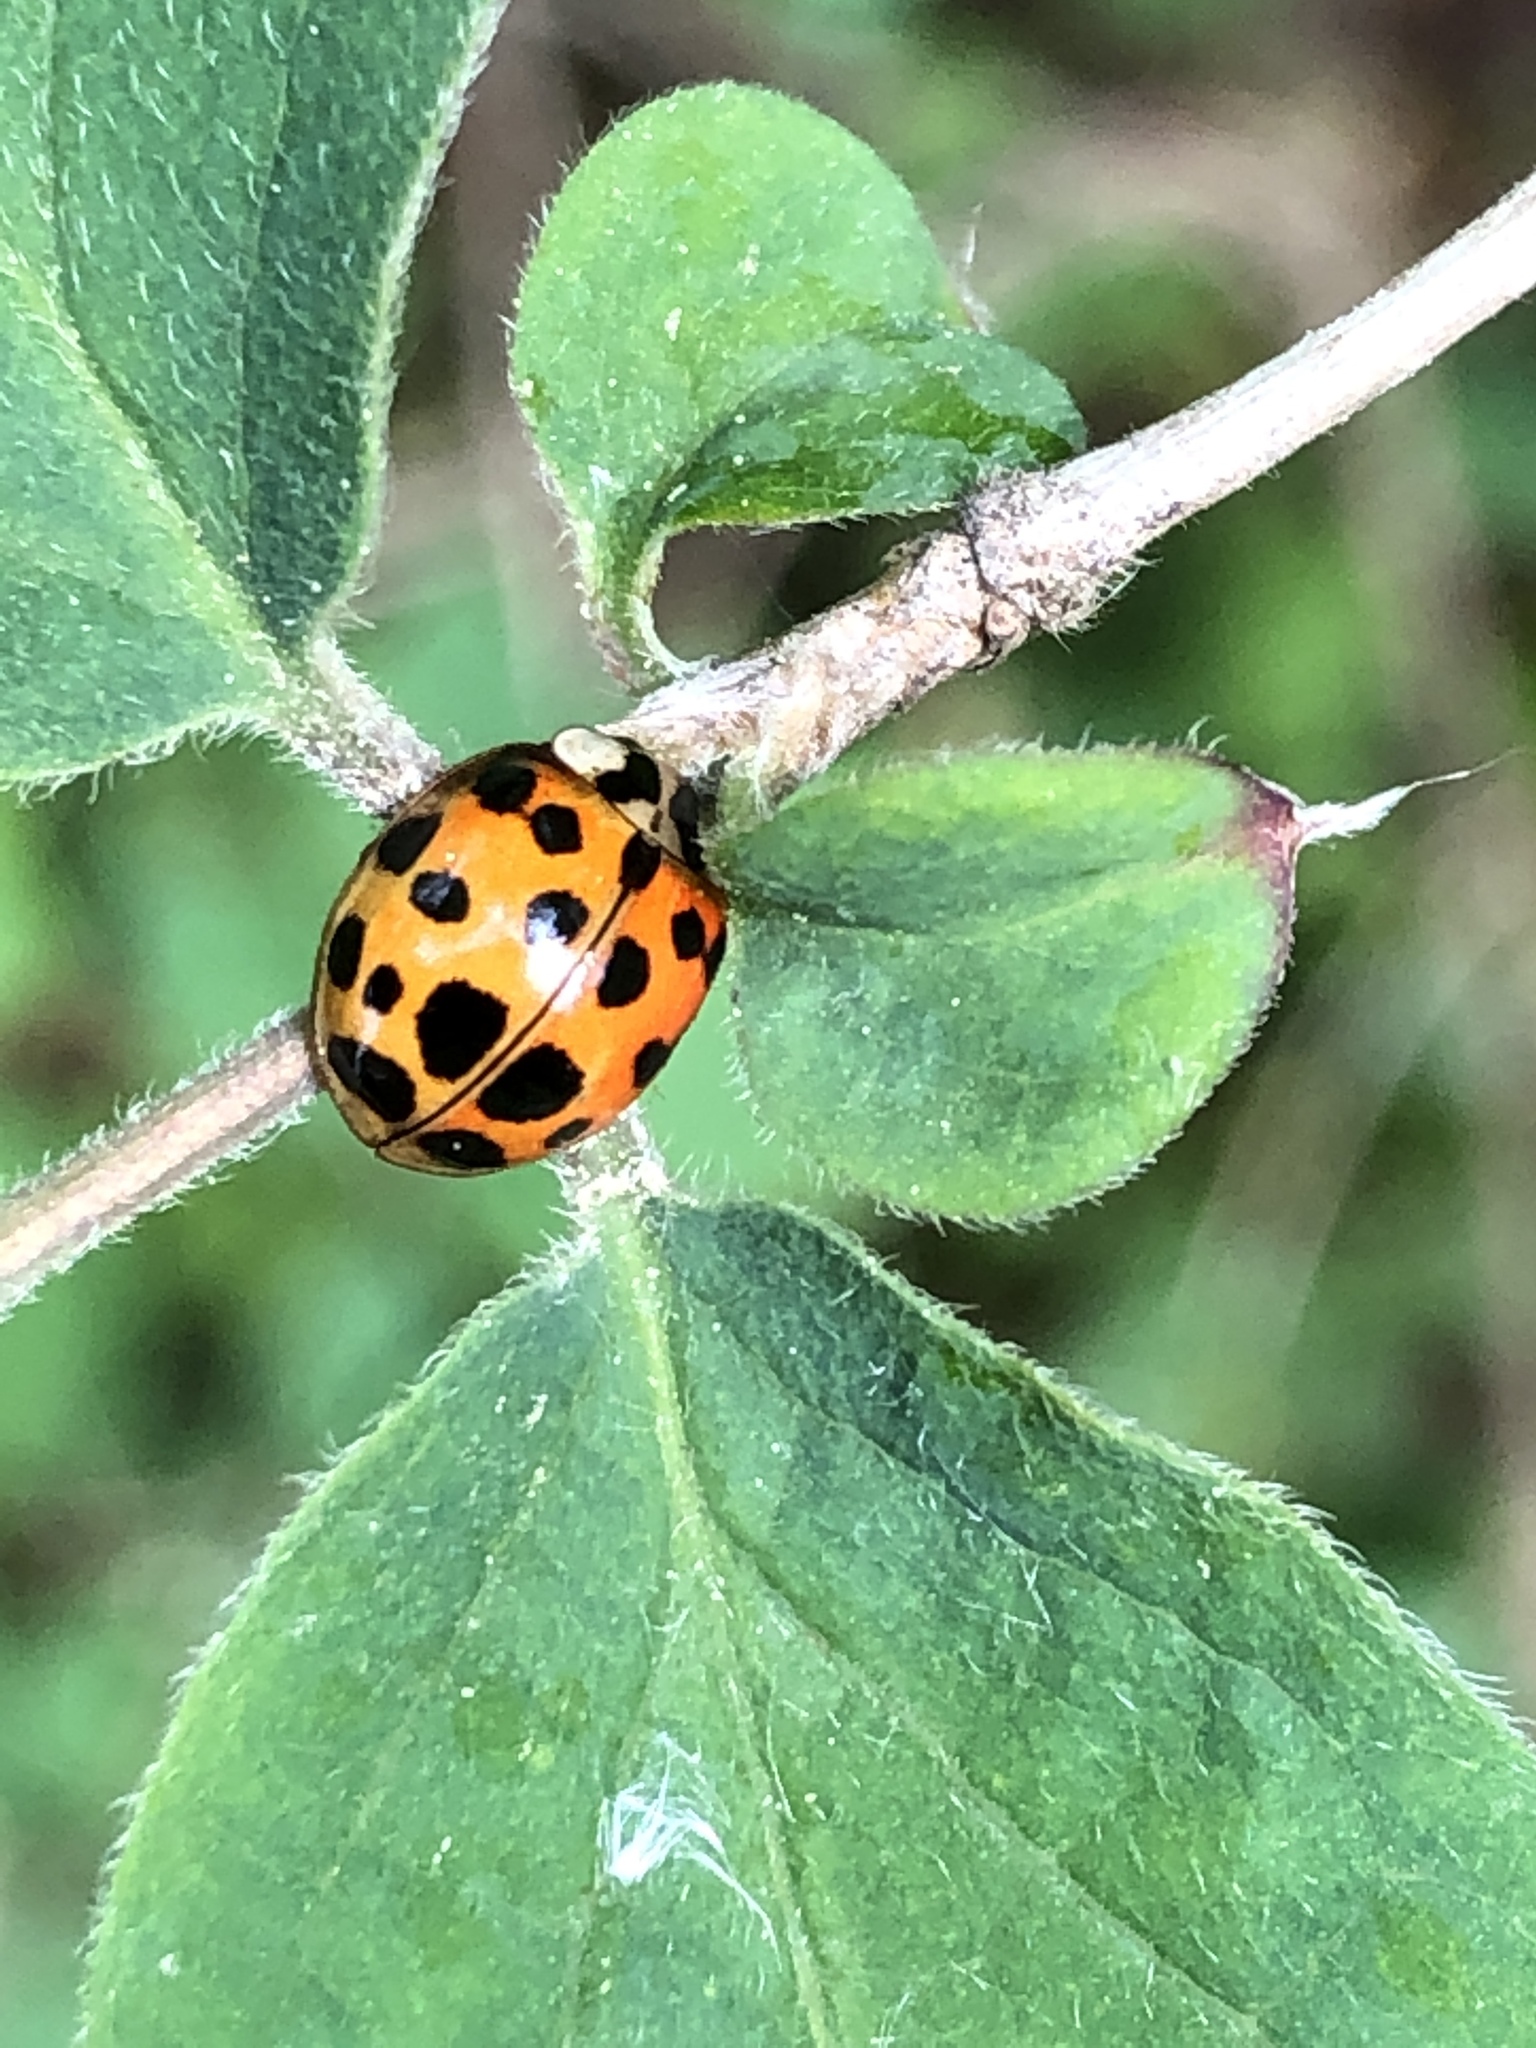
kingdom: Animalia
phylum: Arthropoda
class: Insecta
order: Coleoptera
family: Coccinellidae
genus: Harmonia
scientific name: Harmonia axyridis
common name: Harlequin ladybird
